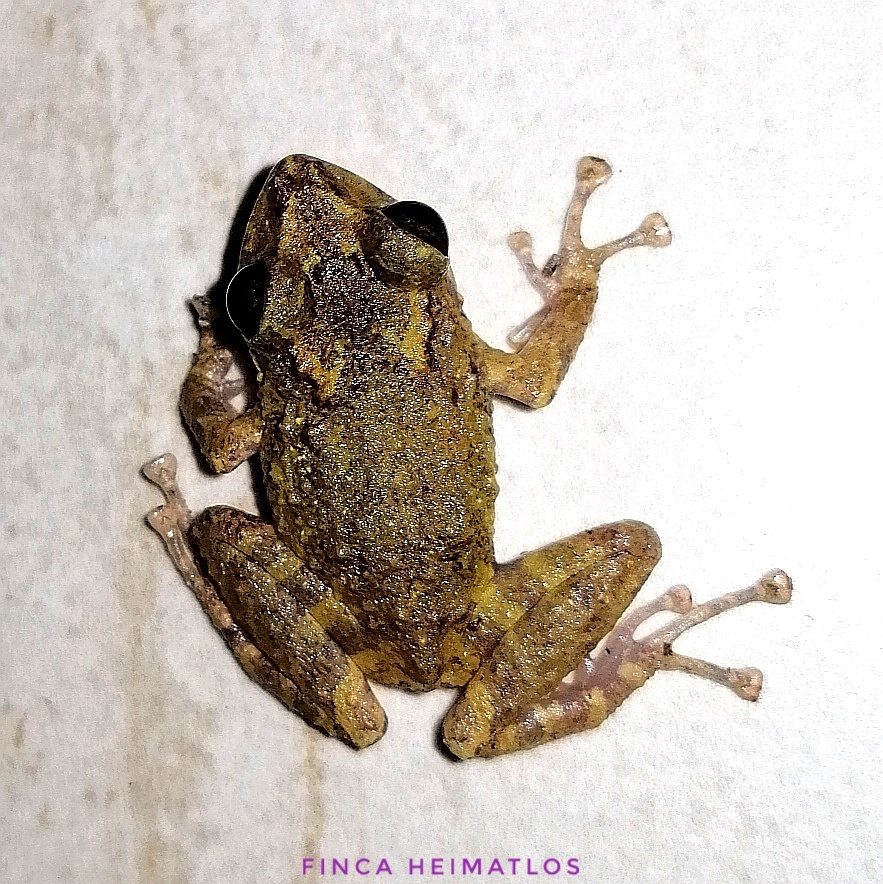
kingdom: Animalia
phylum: Chordata
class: Amphibia
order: Anura
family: Craugastoridae
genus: Pristimantis
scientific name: Pristimantis diadematus
